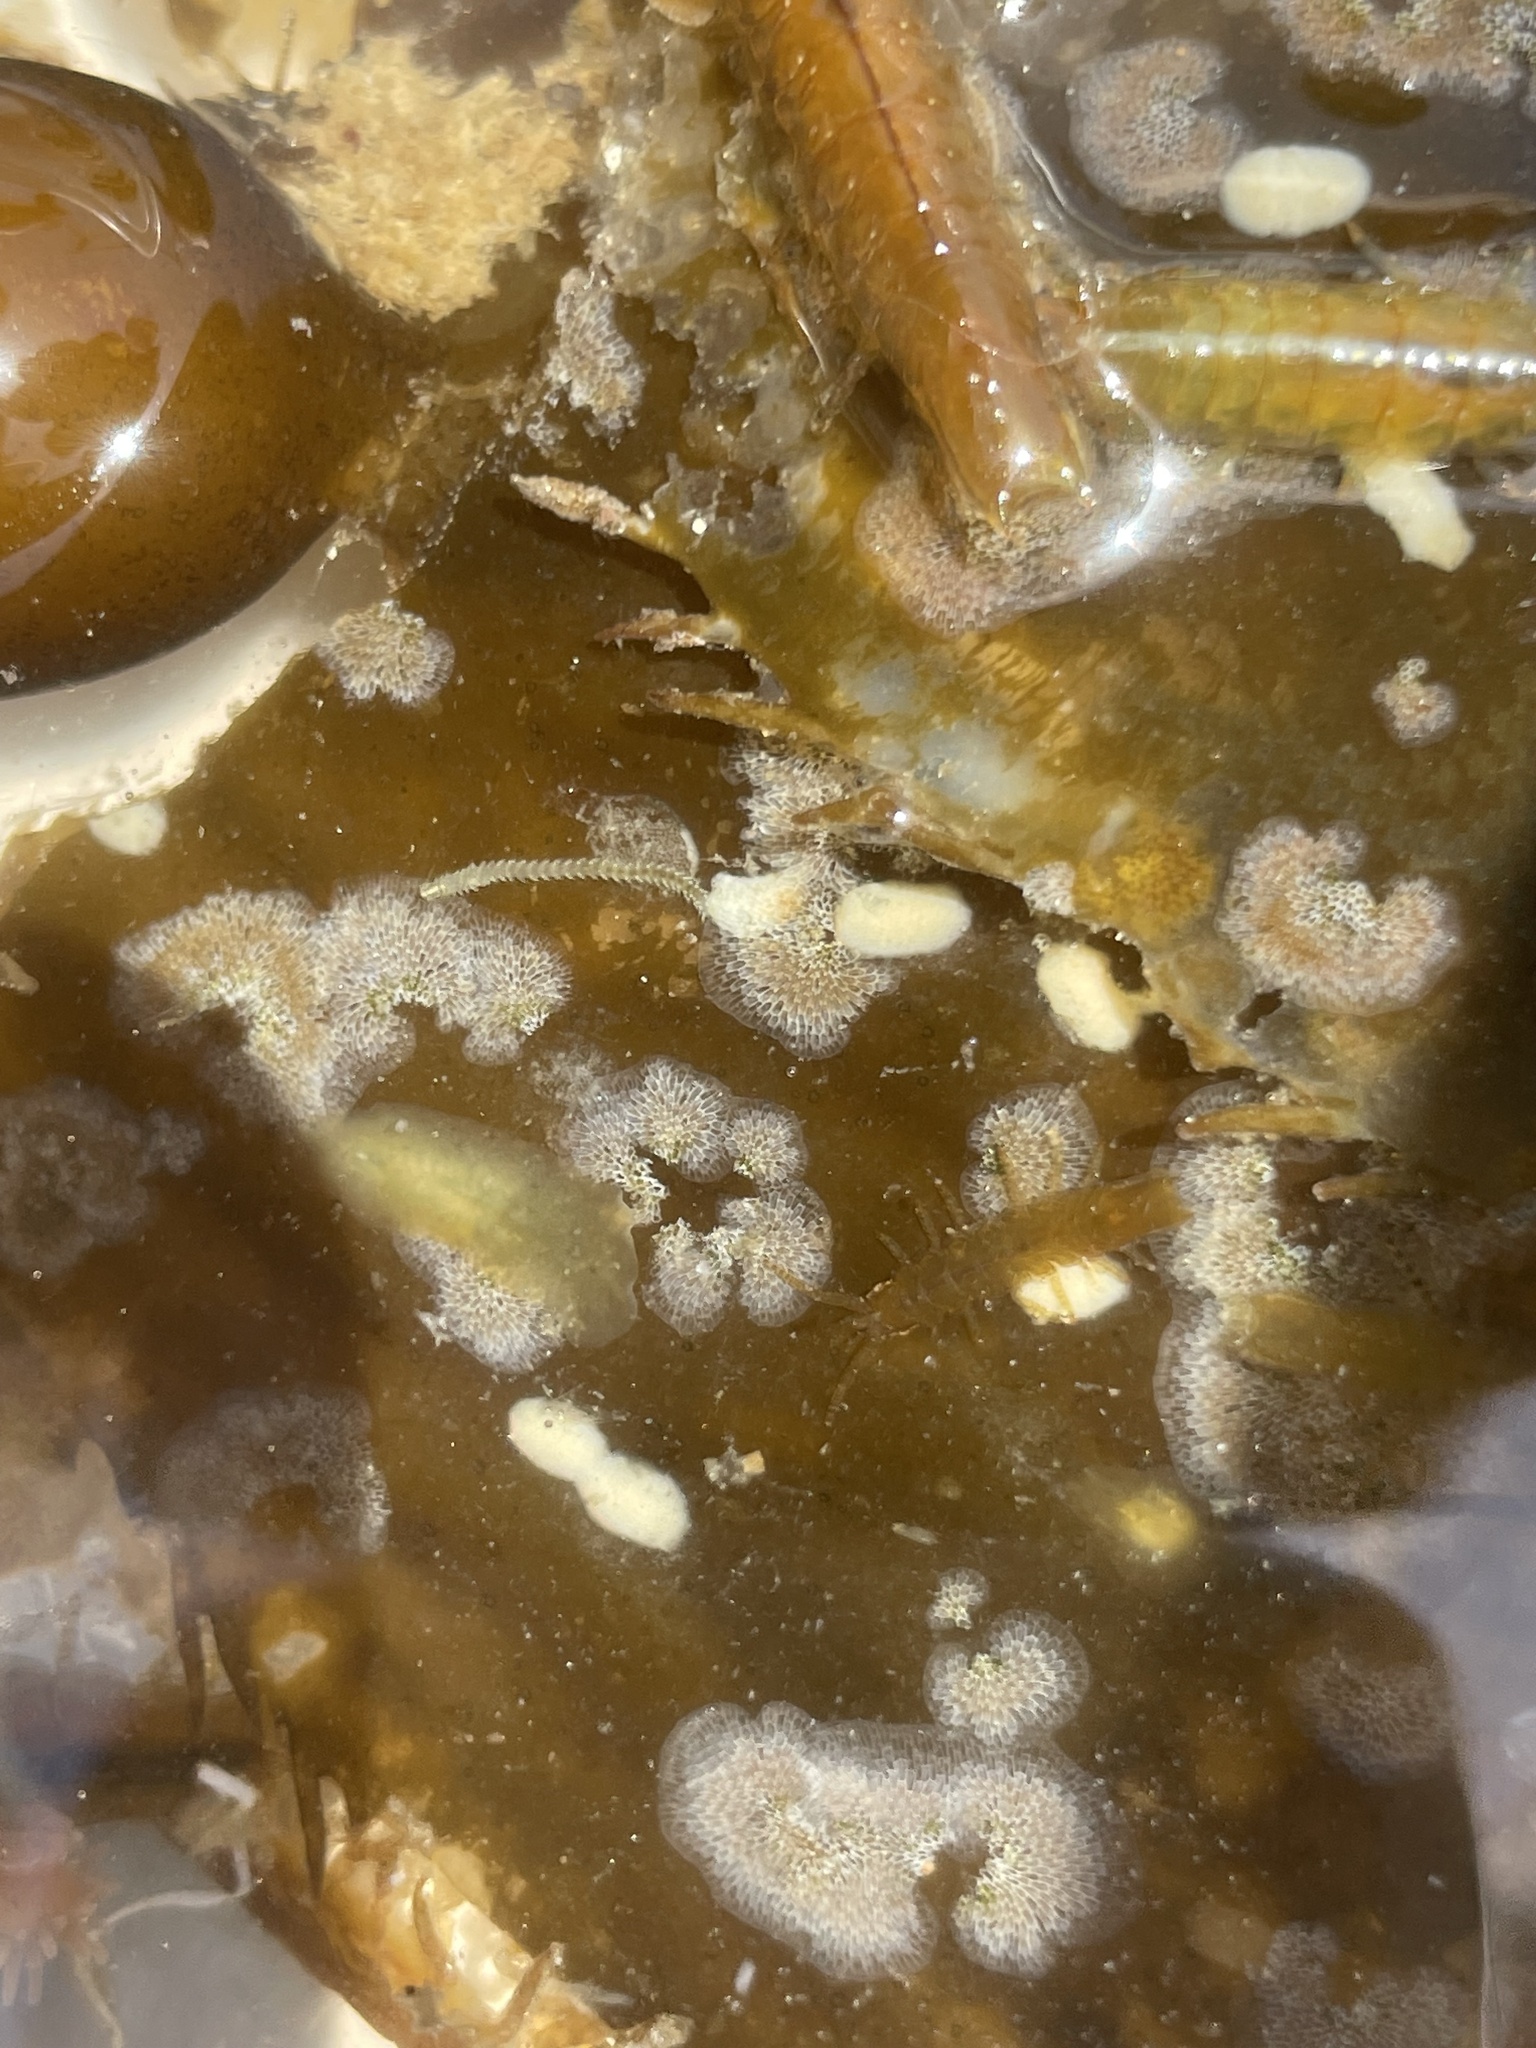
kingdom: Animalia
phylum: Bryozoa
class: Gymnolaemata
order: Cheilostomatida
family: Membraniporidae
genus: Membranipora
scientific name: Membranipora membranacea
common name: Sea mat
